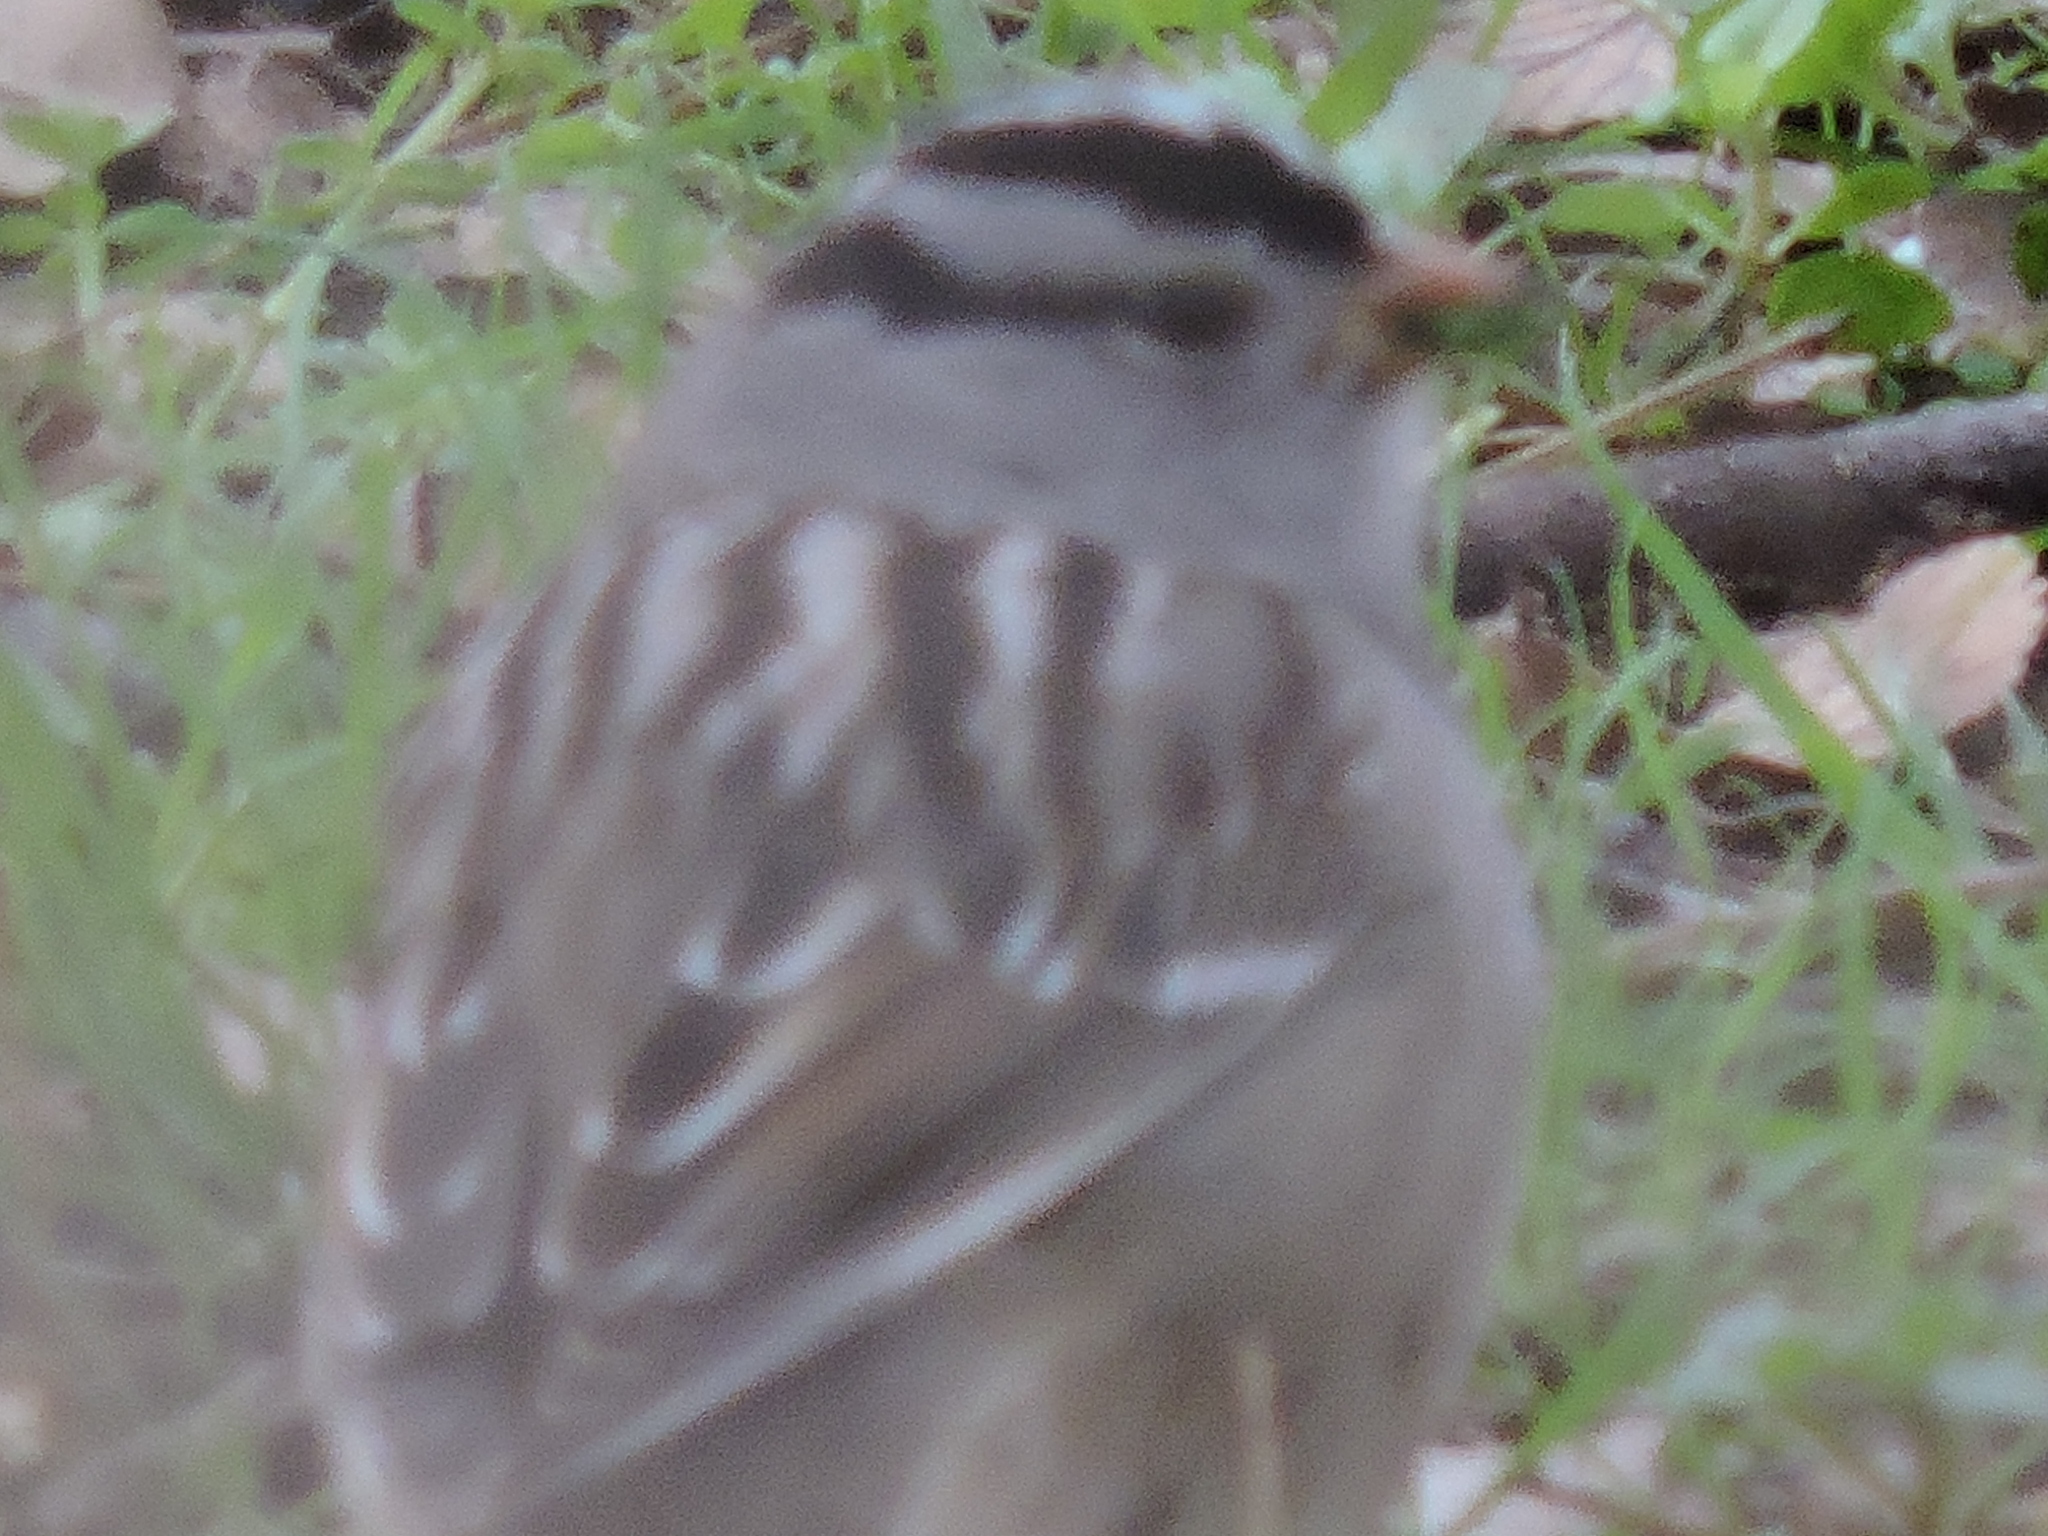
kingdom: Animalia
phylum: Chordata
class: Aves
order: Passeriformes
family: Passerellidae
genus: Zonotrichia
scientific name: Zonotrichia leucophrys
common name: White-crowned sparrow
